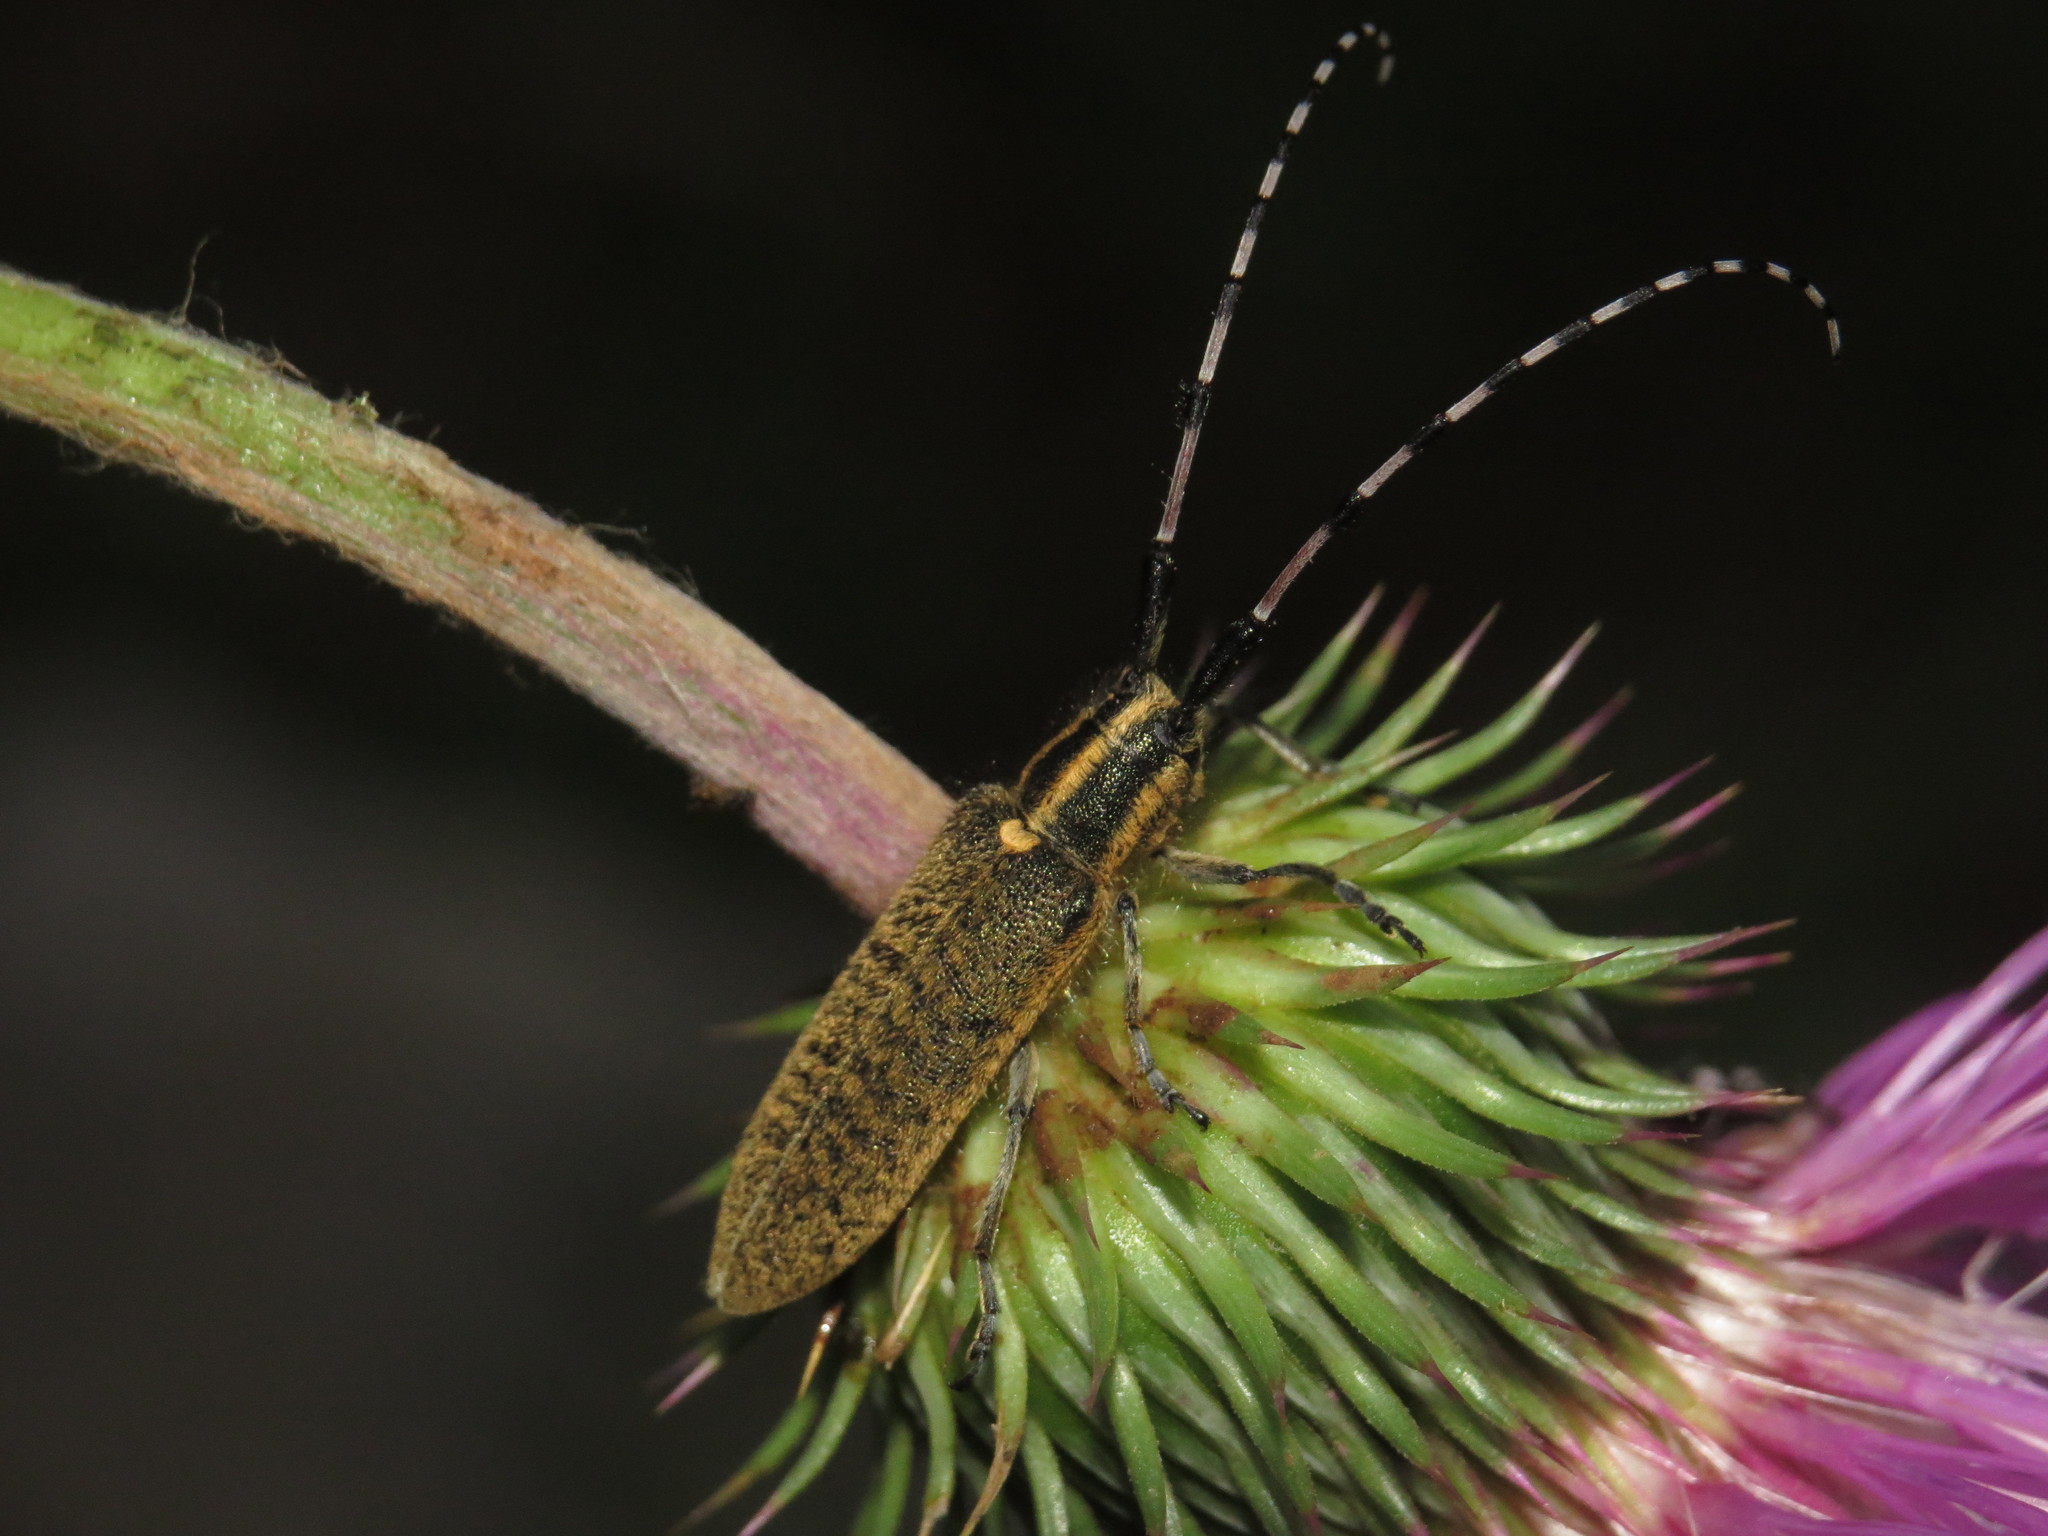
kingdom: Animalia
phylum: Arthropoda
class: Insecta
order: Coleoptera
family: Cerambycidae
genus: Agapanthia
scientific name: Agapanthia dahlii
